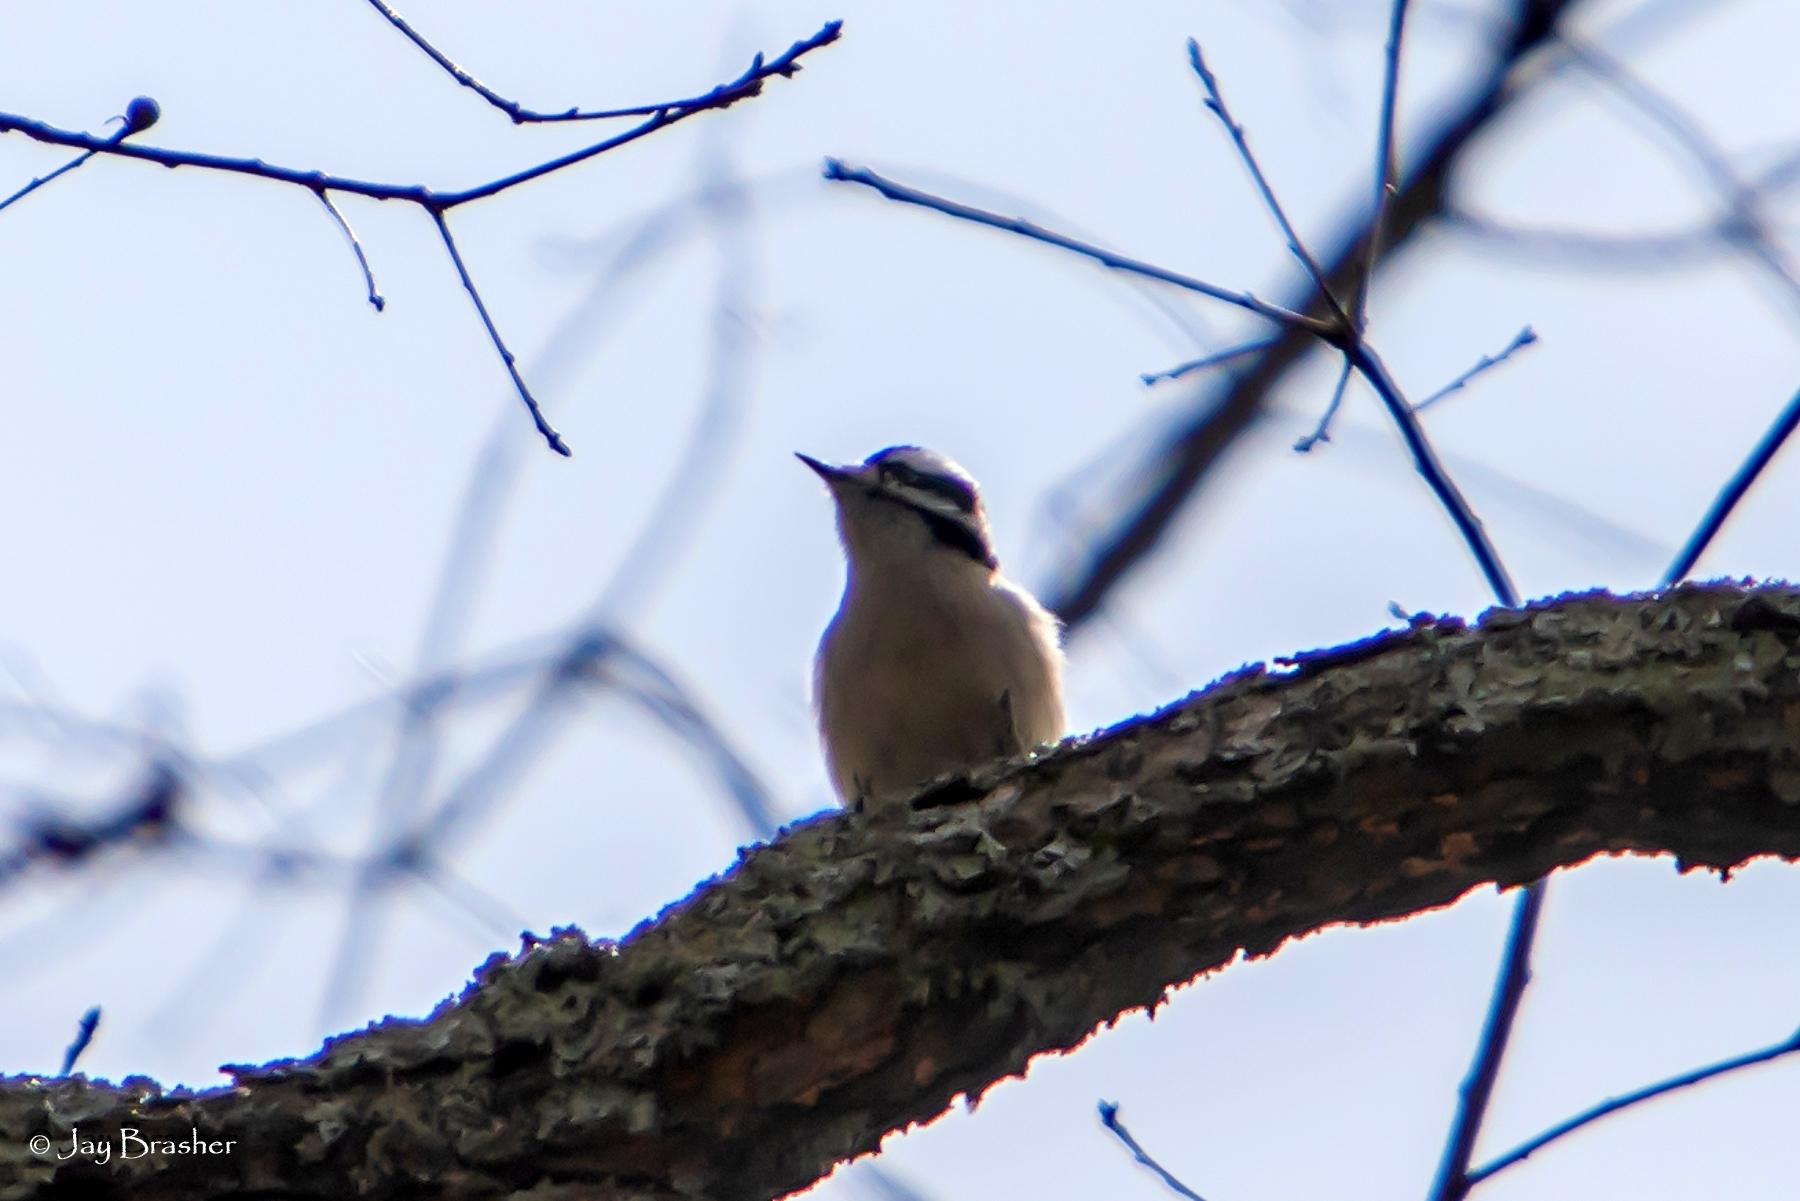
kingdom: Animalia
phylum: Chordata
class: Aves
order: Piciformes
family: Picidae
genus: Dryobates
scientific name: Dryobates pubescens
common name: Downy woodpecker
